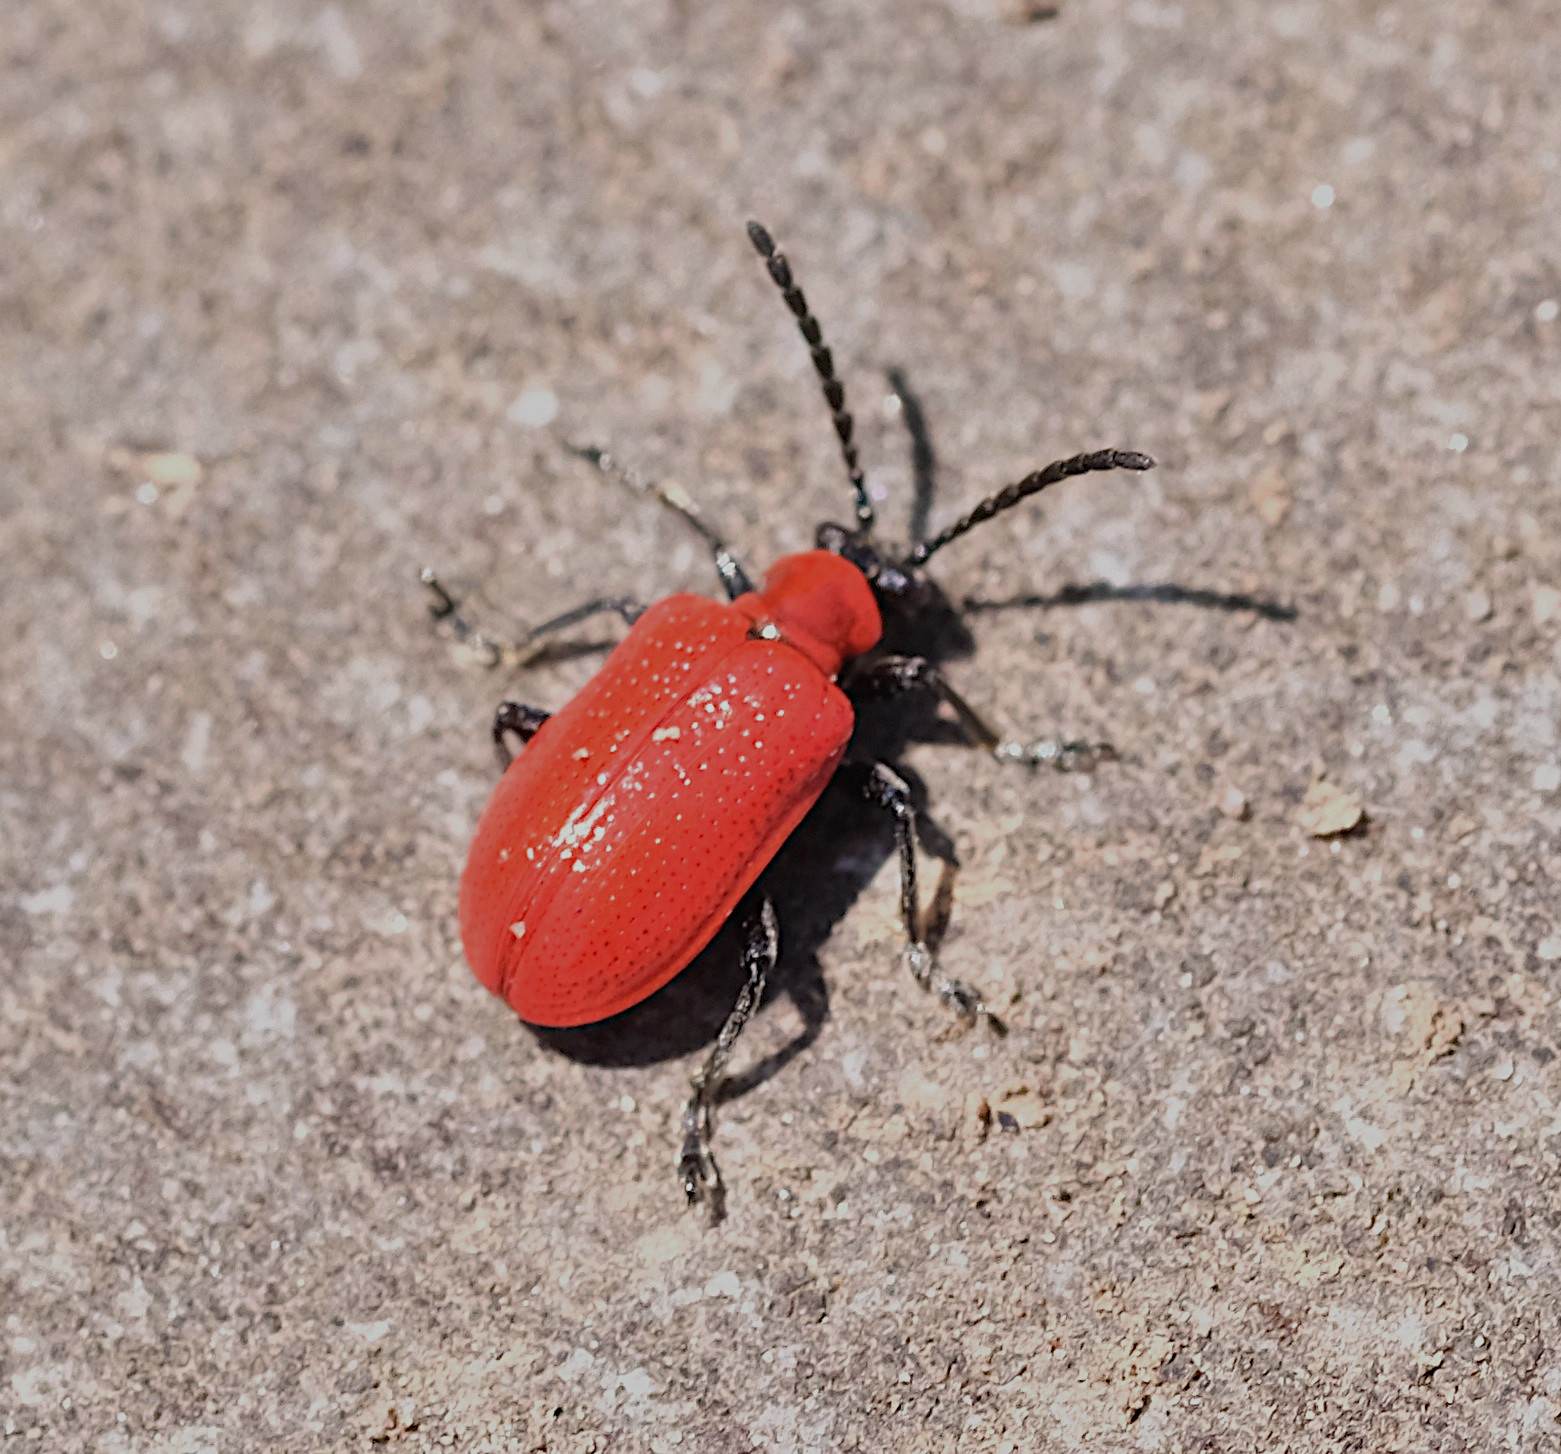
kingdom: Animalia
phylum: Arthropoda
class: Insecta
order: Coleoptera
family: Chrysomelidae
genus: Lilioceris
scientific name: Lilioceris lilii
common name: Lily beetle
